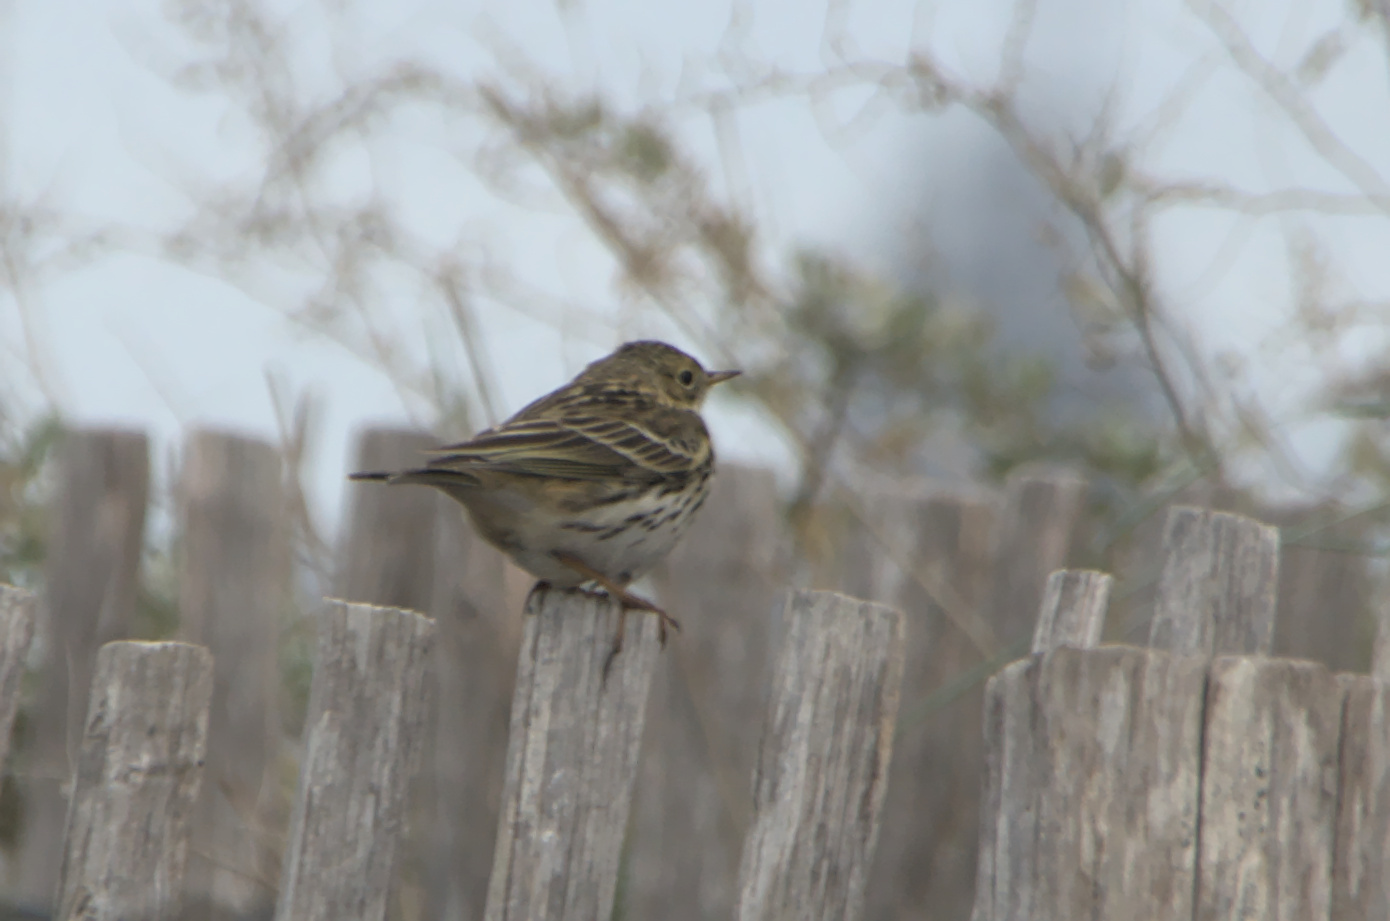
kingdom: Animalia
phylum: Chordata
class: Aves
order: Passeriformes
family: Motacillidae
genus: Anthus
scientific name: Anthus pratensis
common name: Meadow pipit
